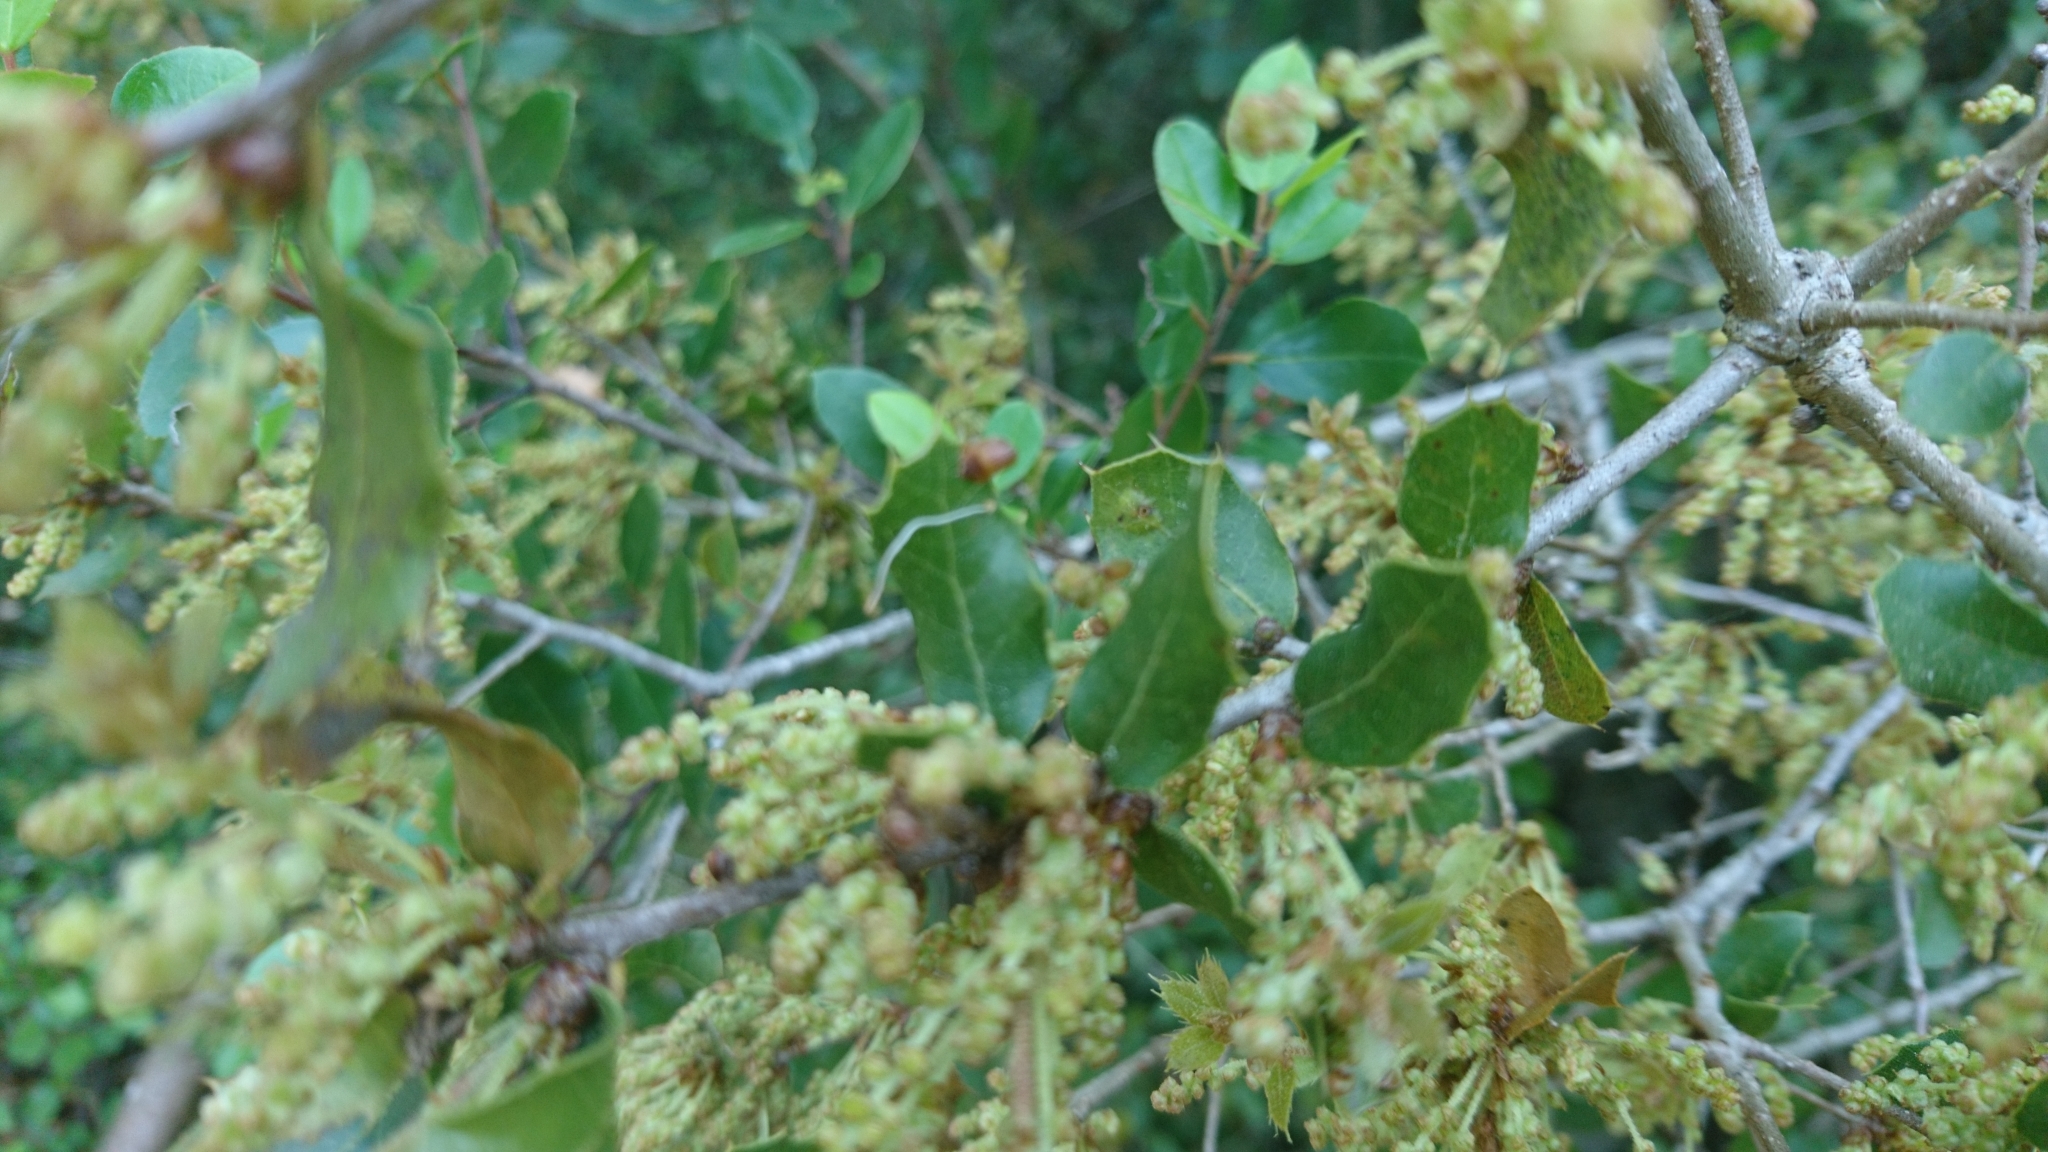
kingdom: Plantae
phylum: Tracheophyta
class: Magnoliopsida
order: Fagales
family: Fagaceae
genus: Quercus
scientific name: Quercus coccifera
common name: Kermes oak
